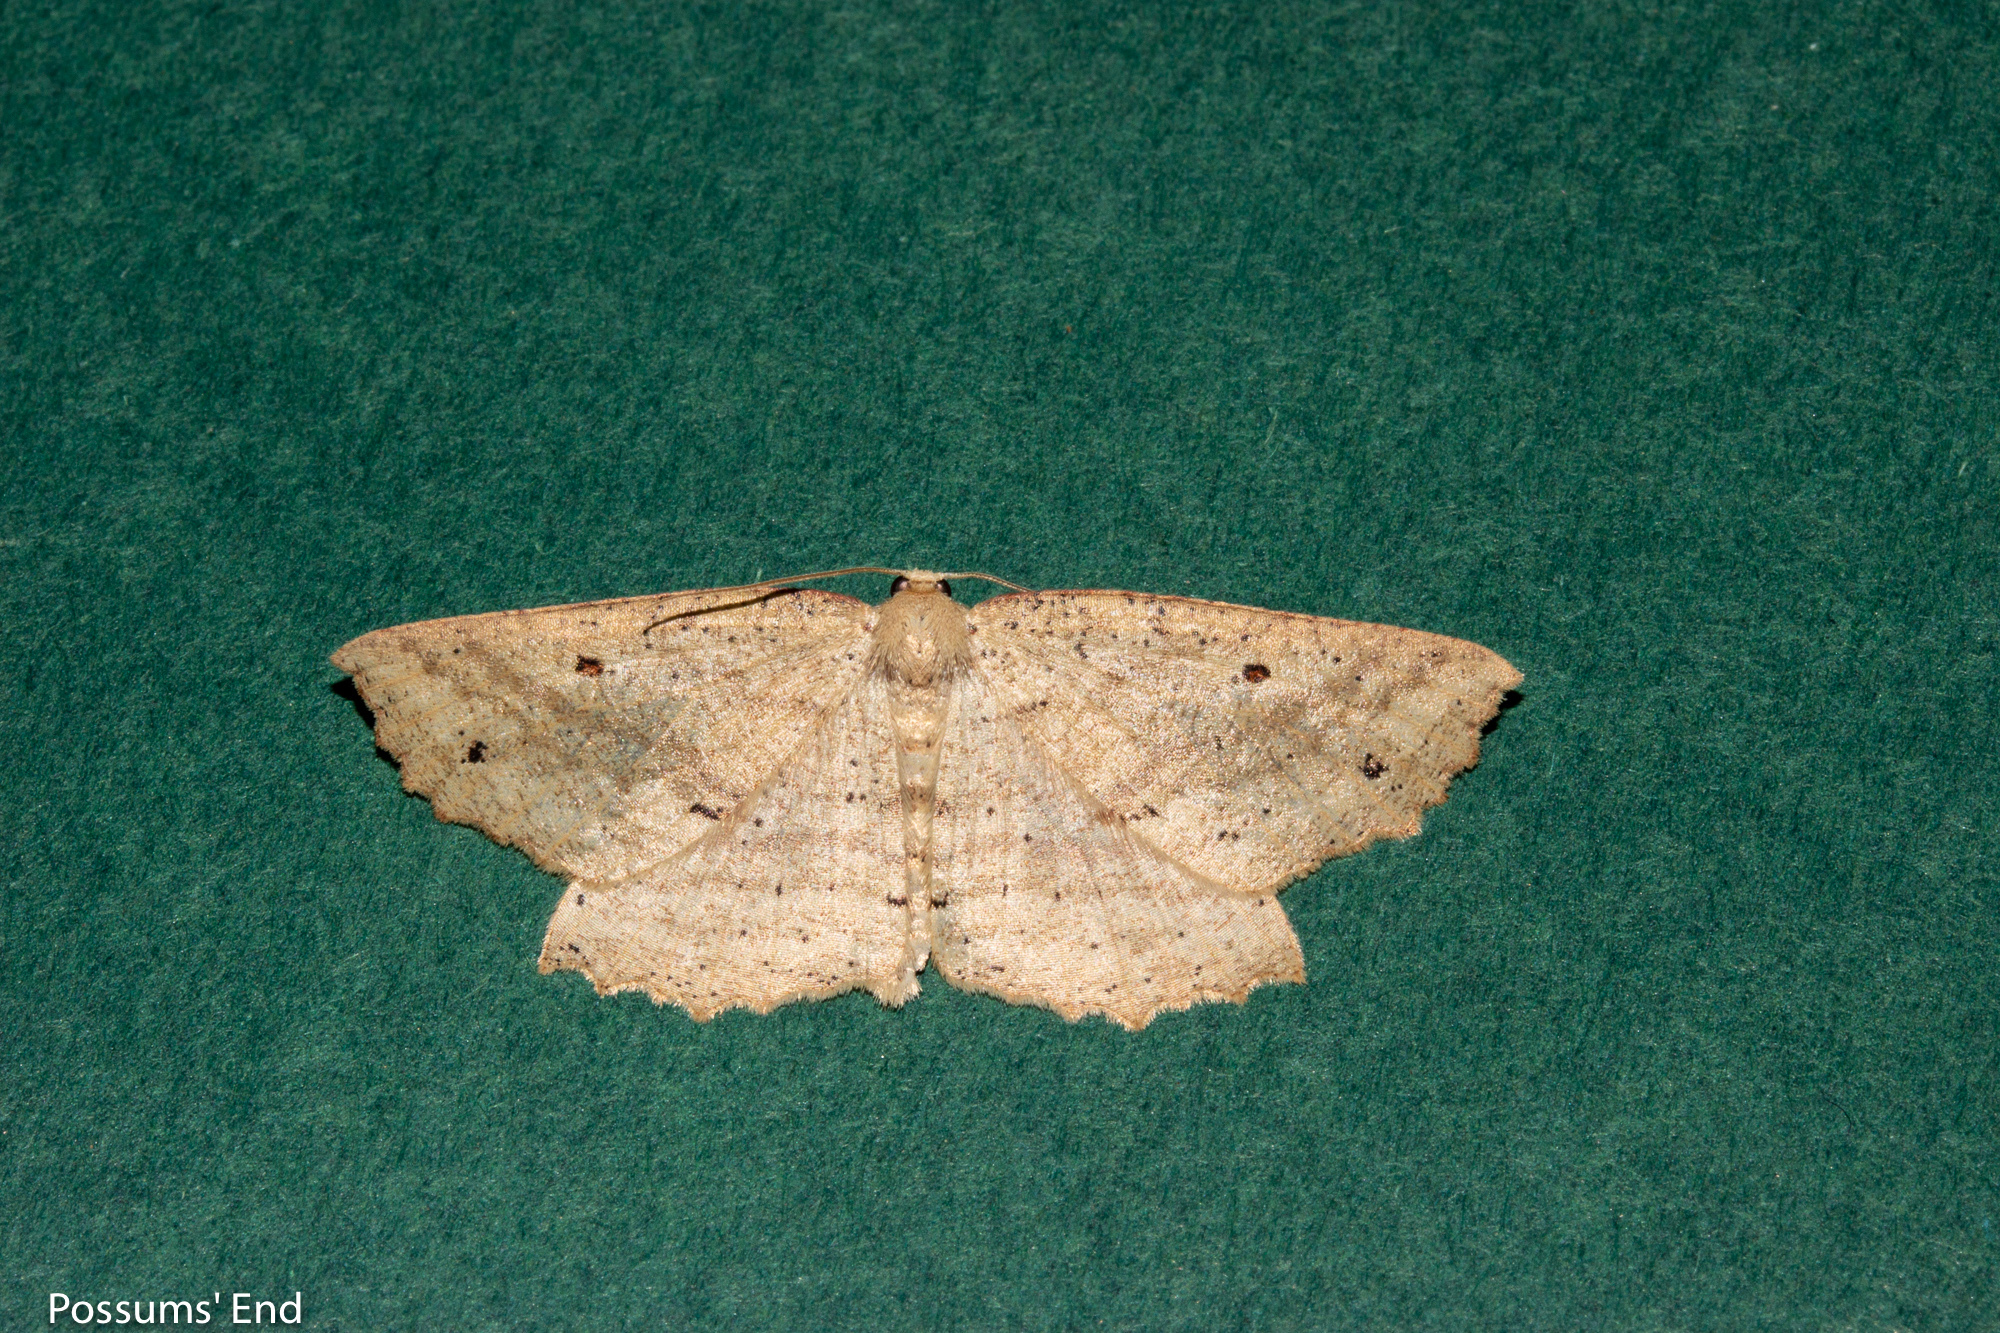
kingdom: Animalia
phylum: Arthropoda
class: Insecta
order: Lepidoptera
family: Geometridae
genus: Xyridacma
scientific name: Xyridacma veronicae
